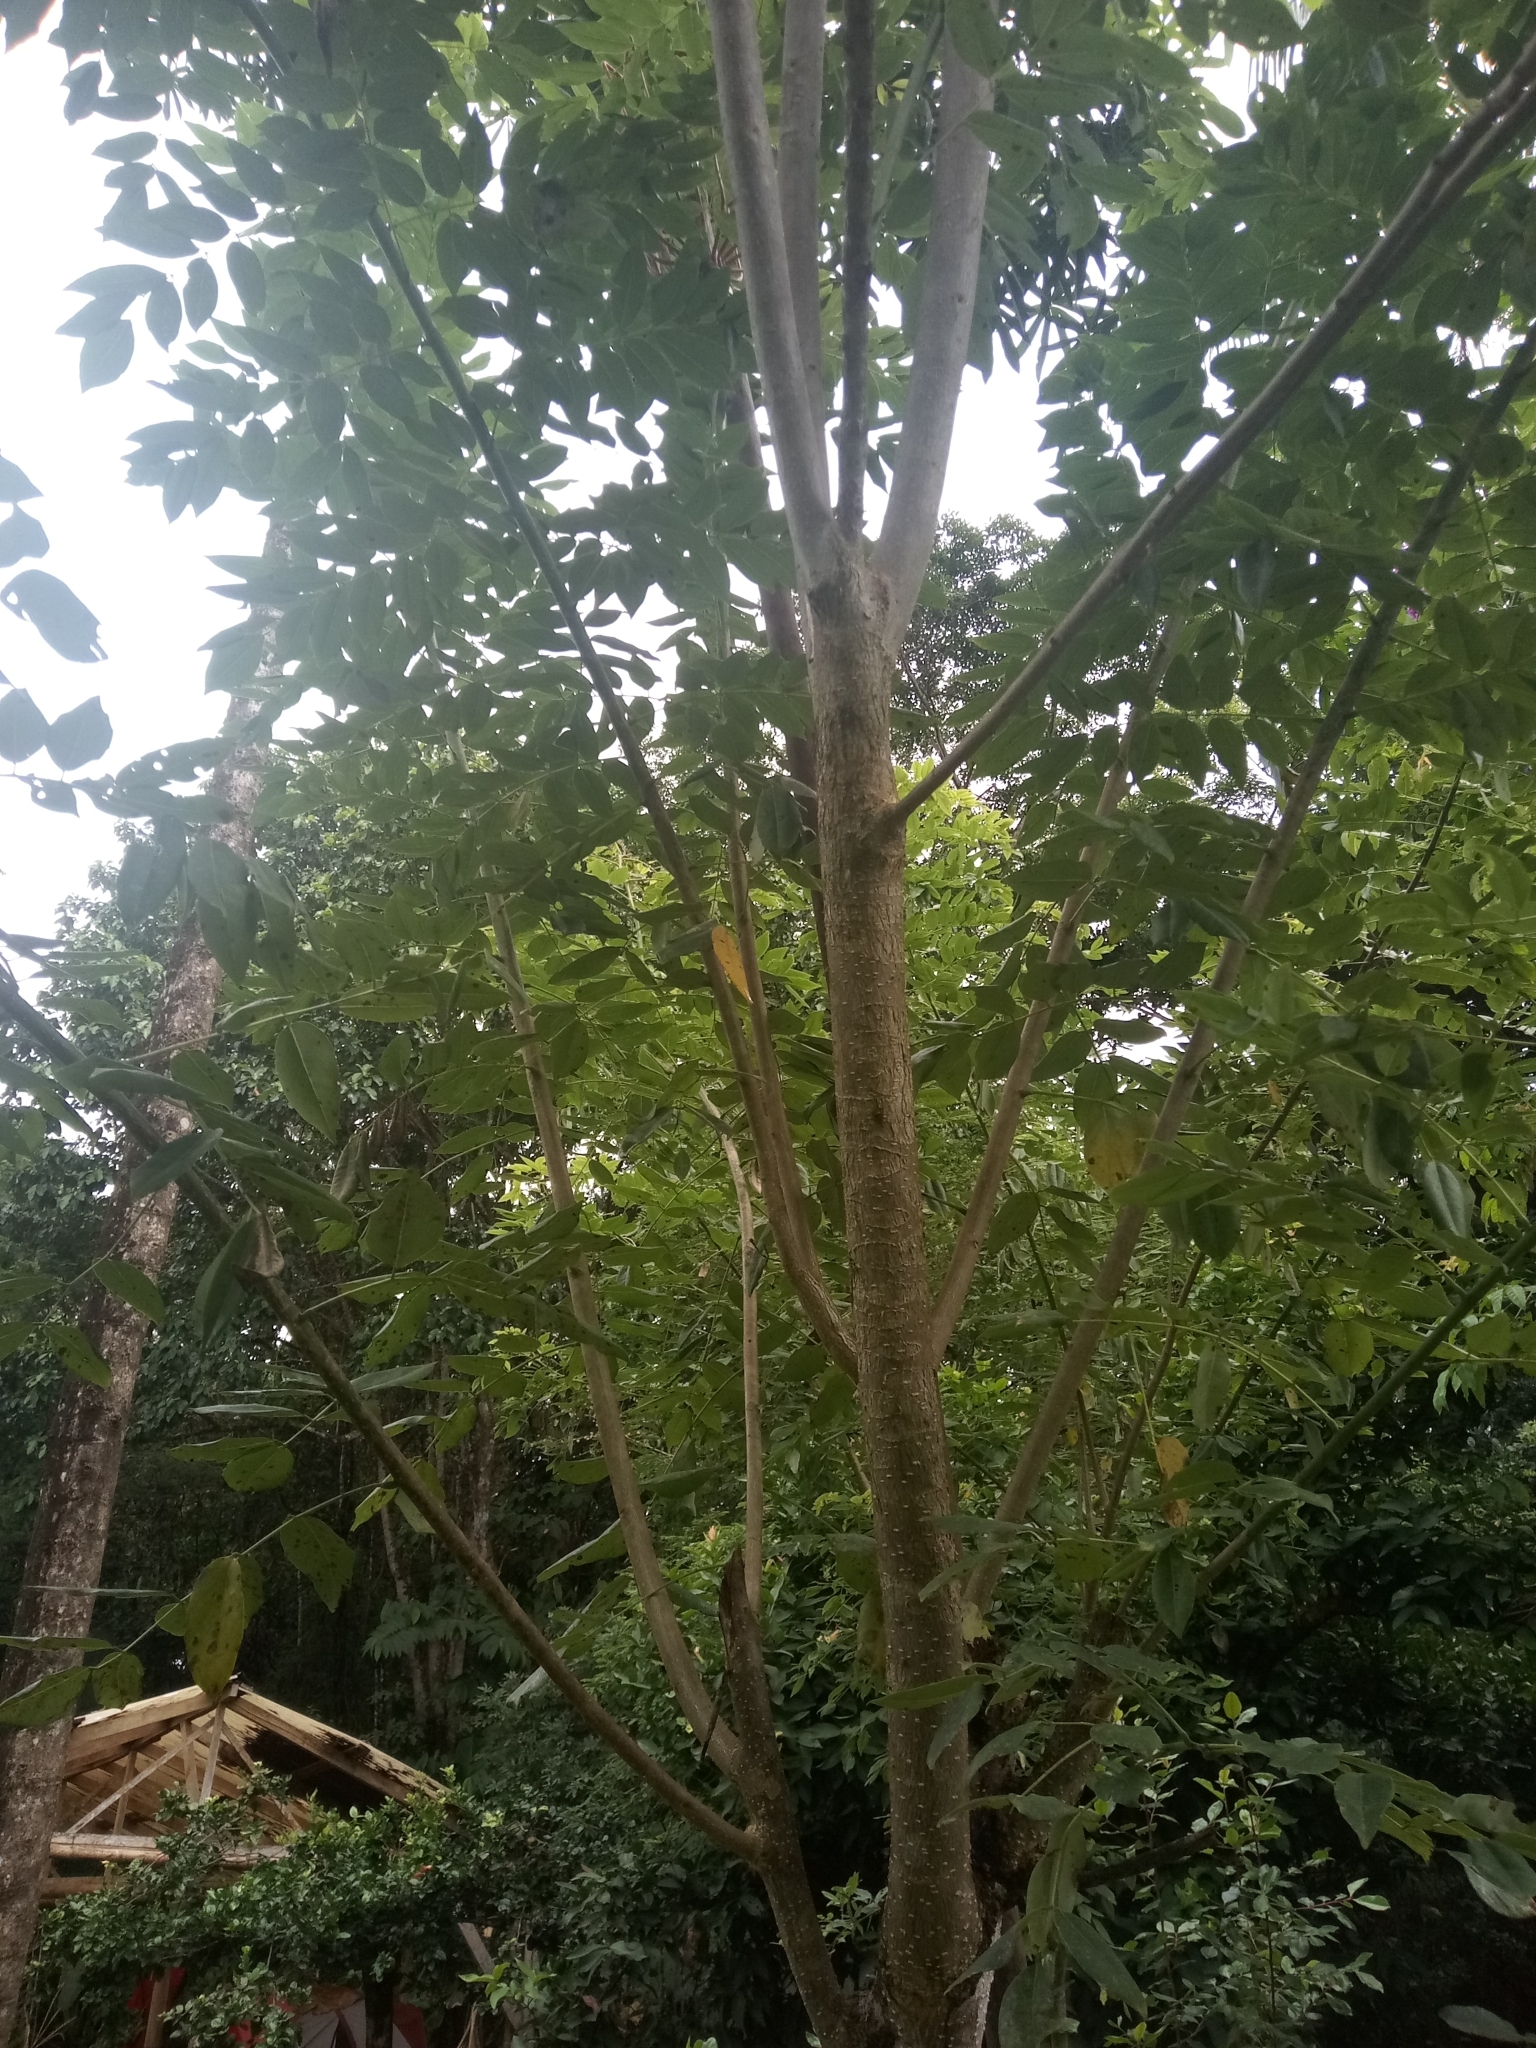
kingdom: Plantae
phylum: Tracheophyta
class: Magnoliopsida
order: Fabales
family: Fabaceae
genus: Gliricidia
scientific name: Gliricidia sepium
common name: Quickstick
